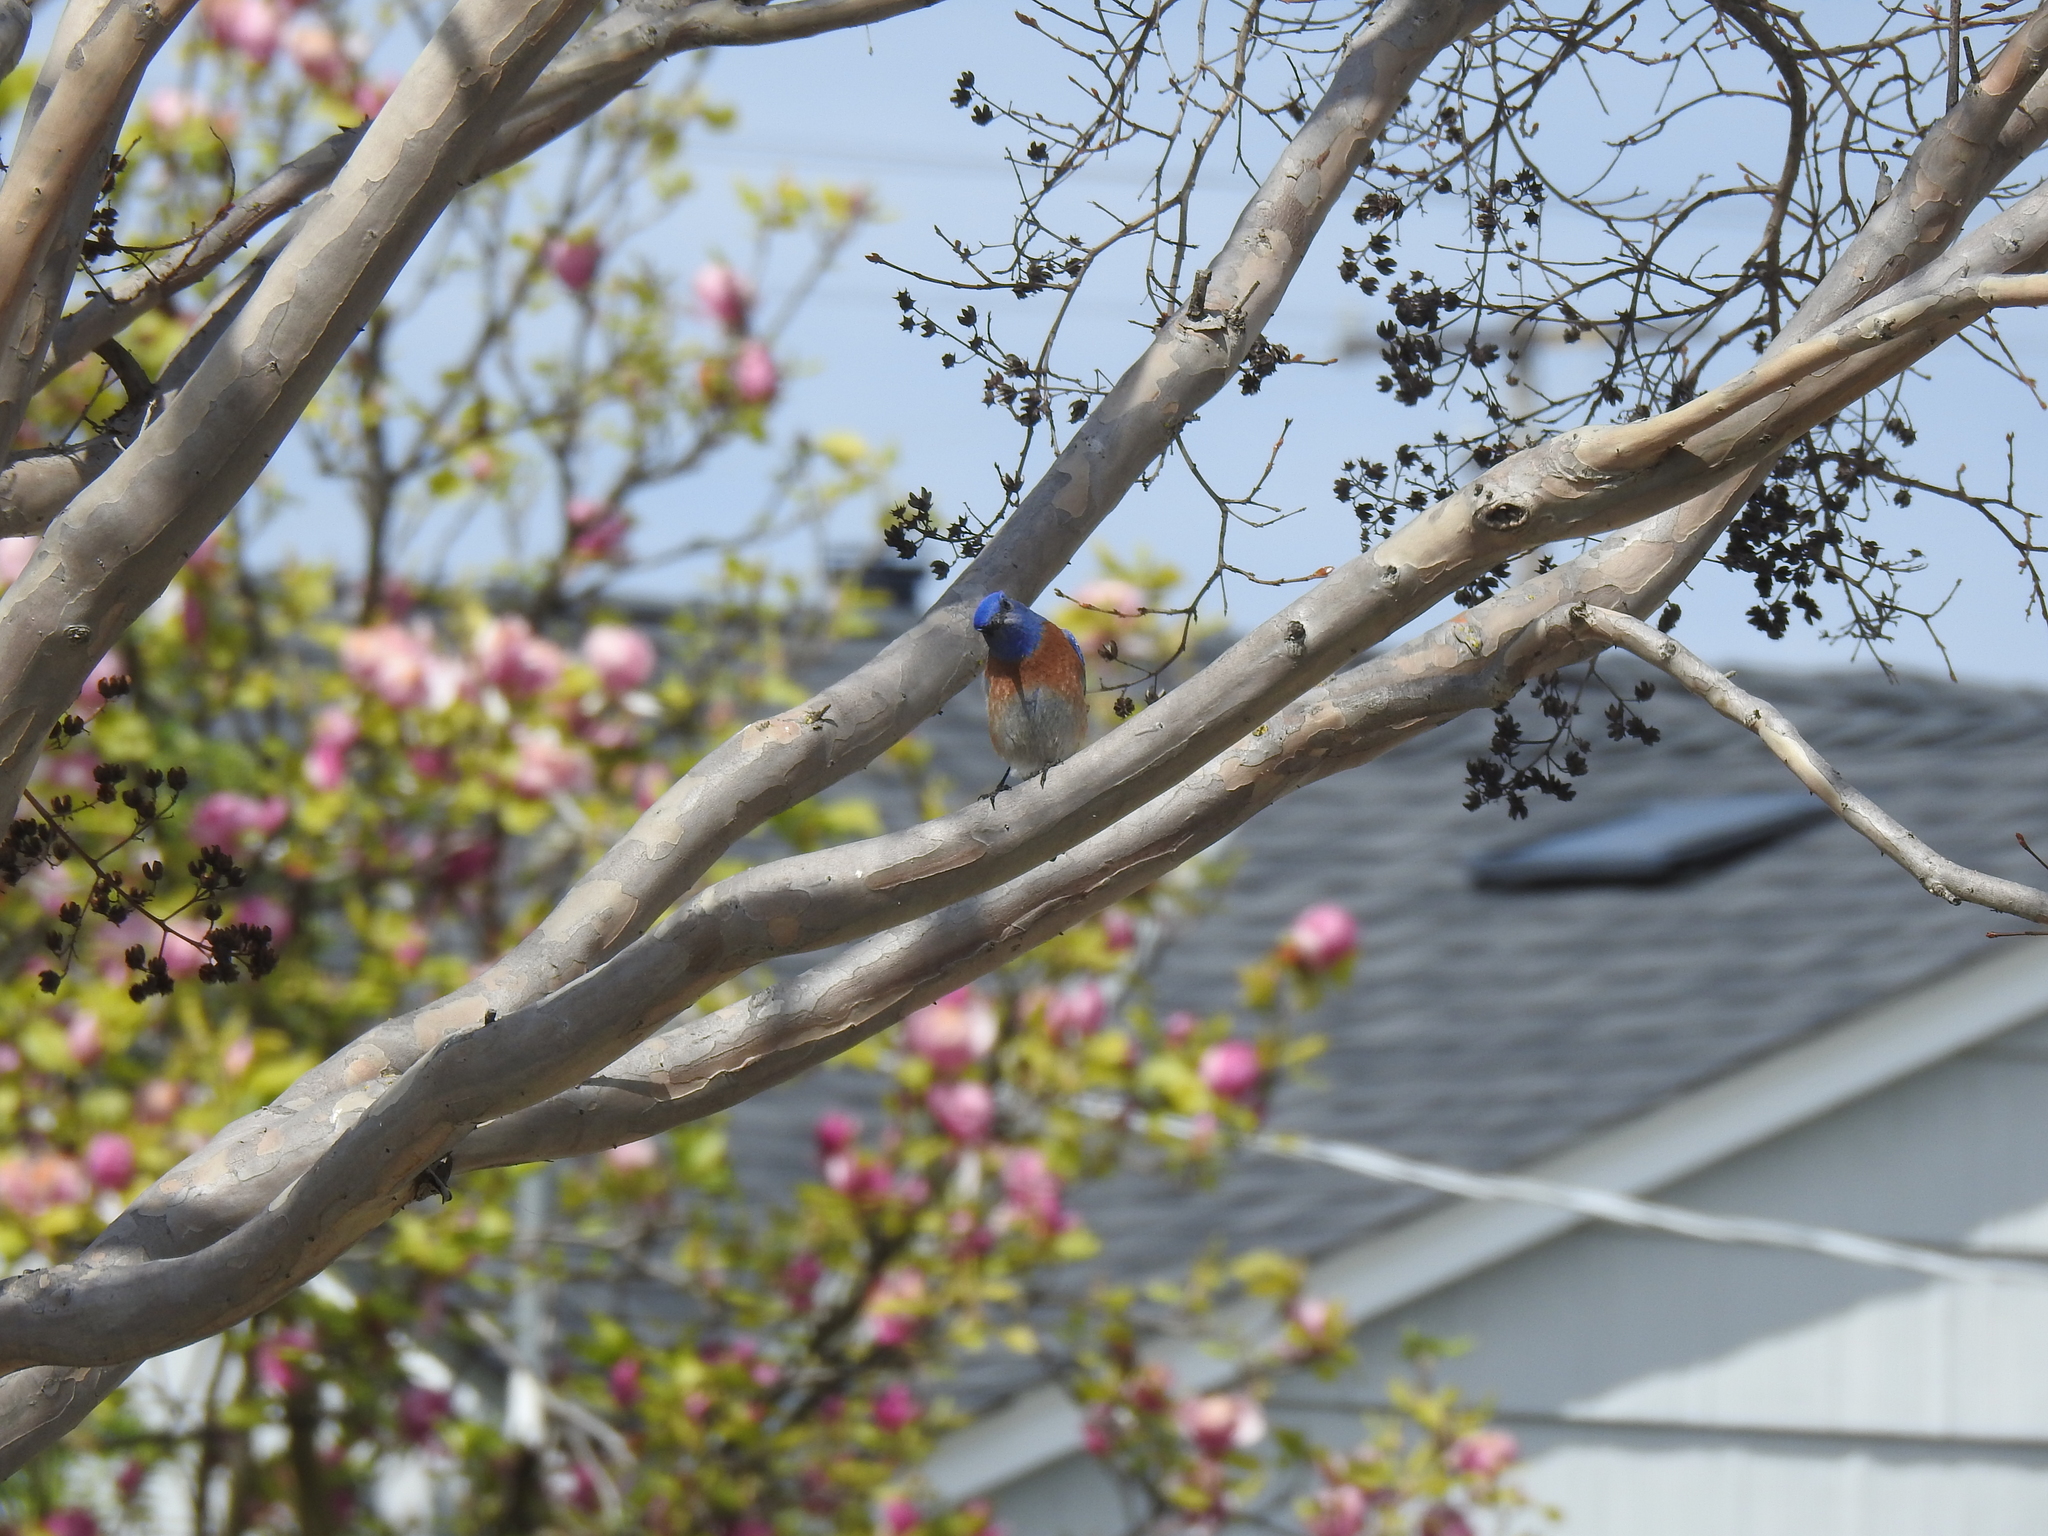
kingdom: Animalia
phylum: Chordata
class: Aves
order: Passeriformes
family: Turdidae
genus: Sialia
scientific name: Sialia mexicana
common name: Western bluebird
